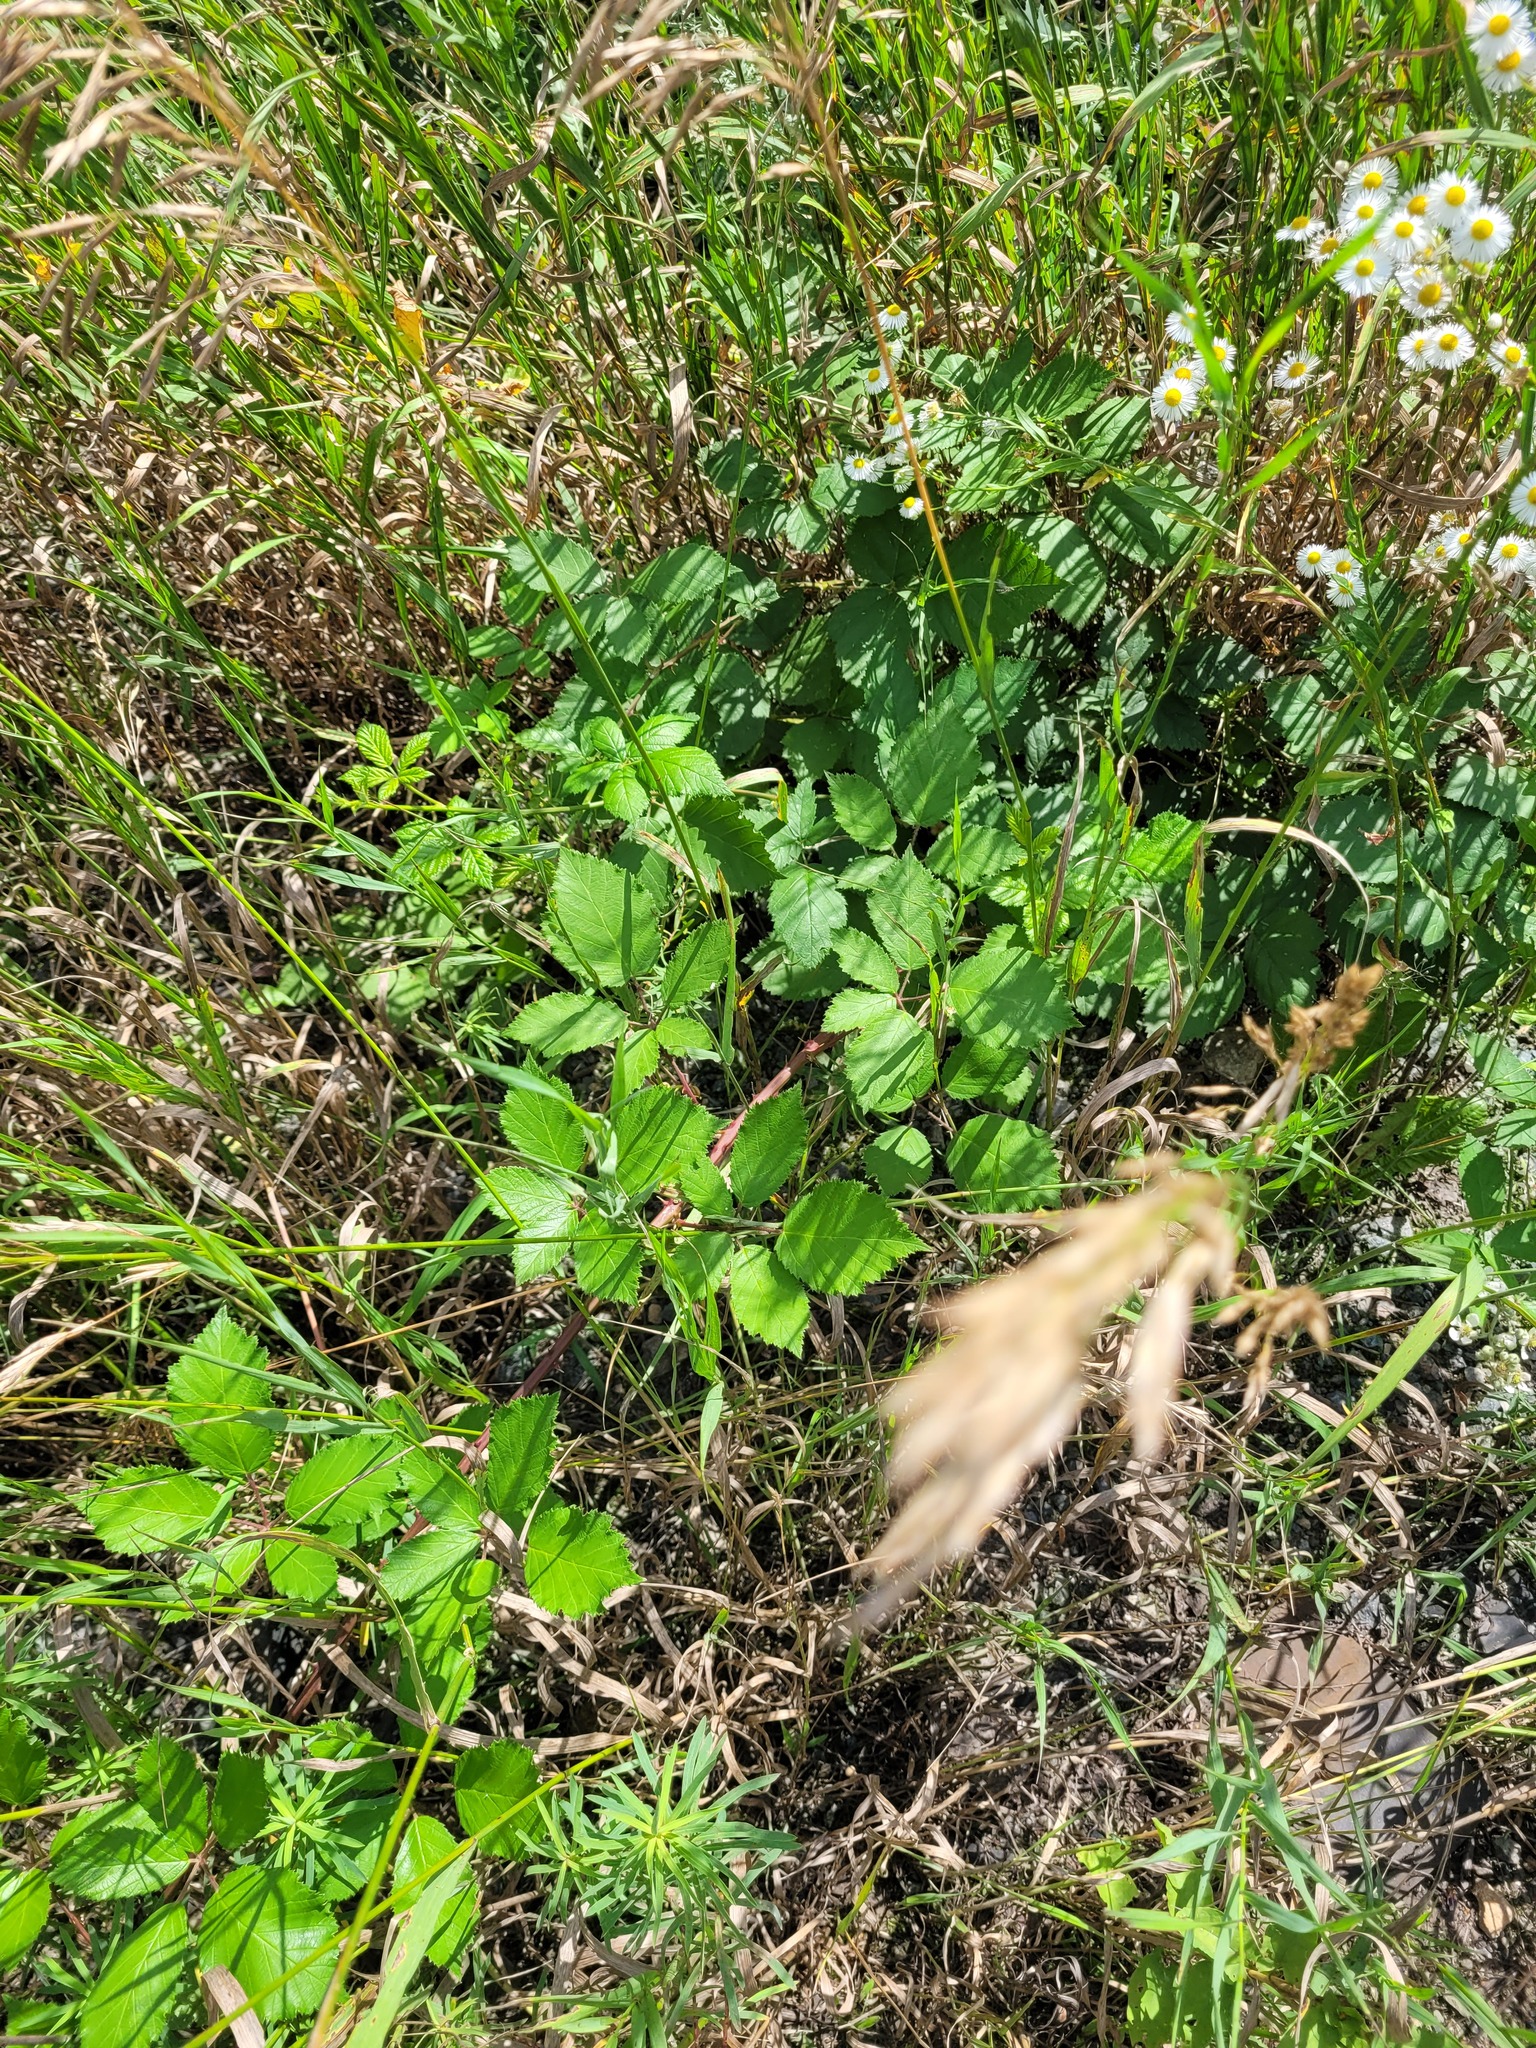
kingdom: Plantae
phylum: Tracheophyta
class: Magnoliopsida
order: Rosales
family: Rosaceae
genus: Rubus
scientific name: Rubus procerus
